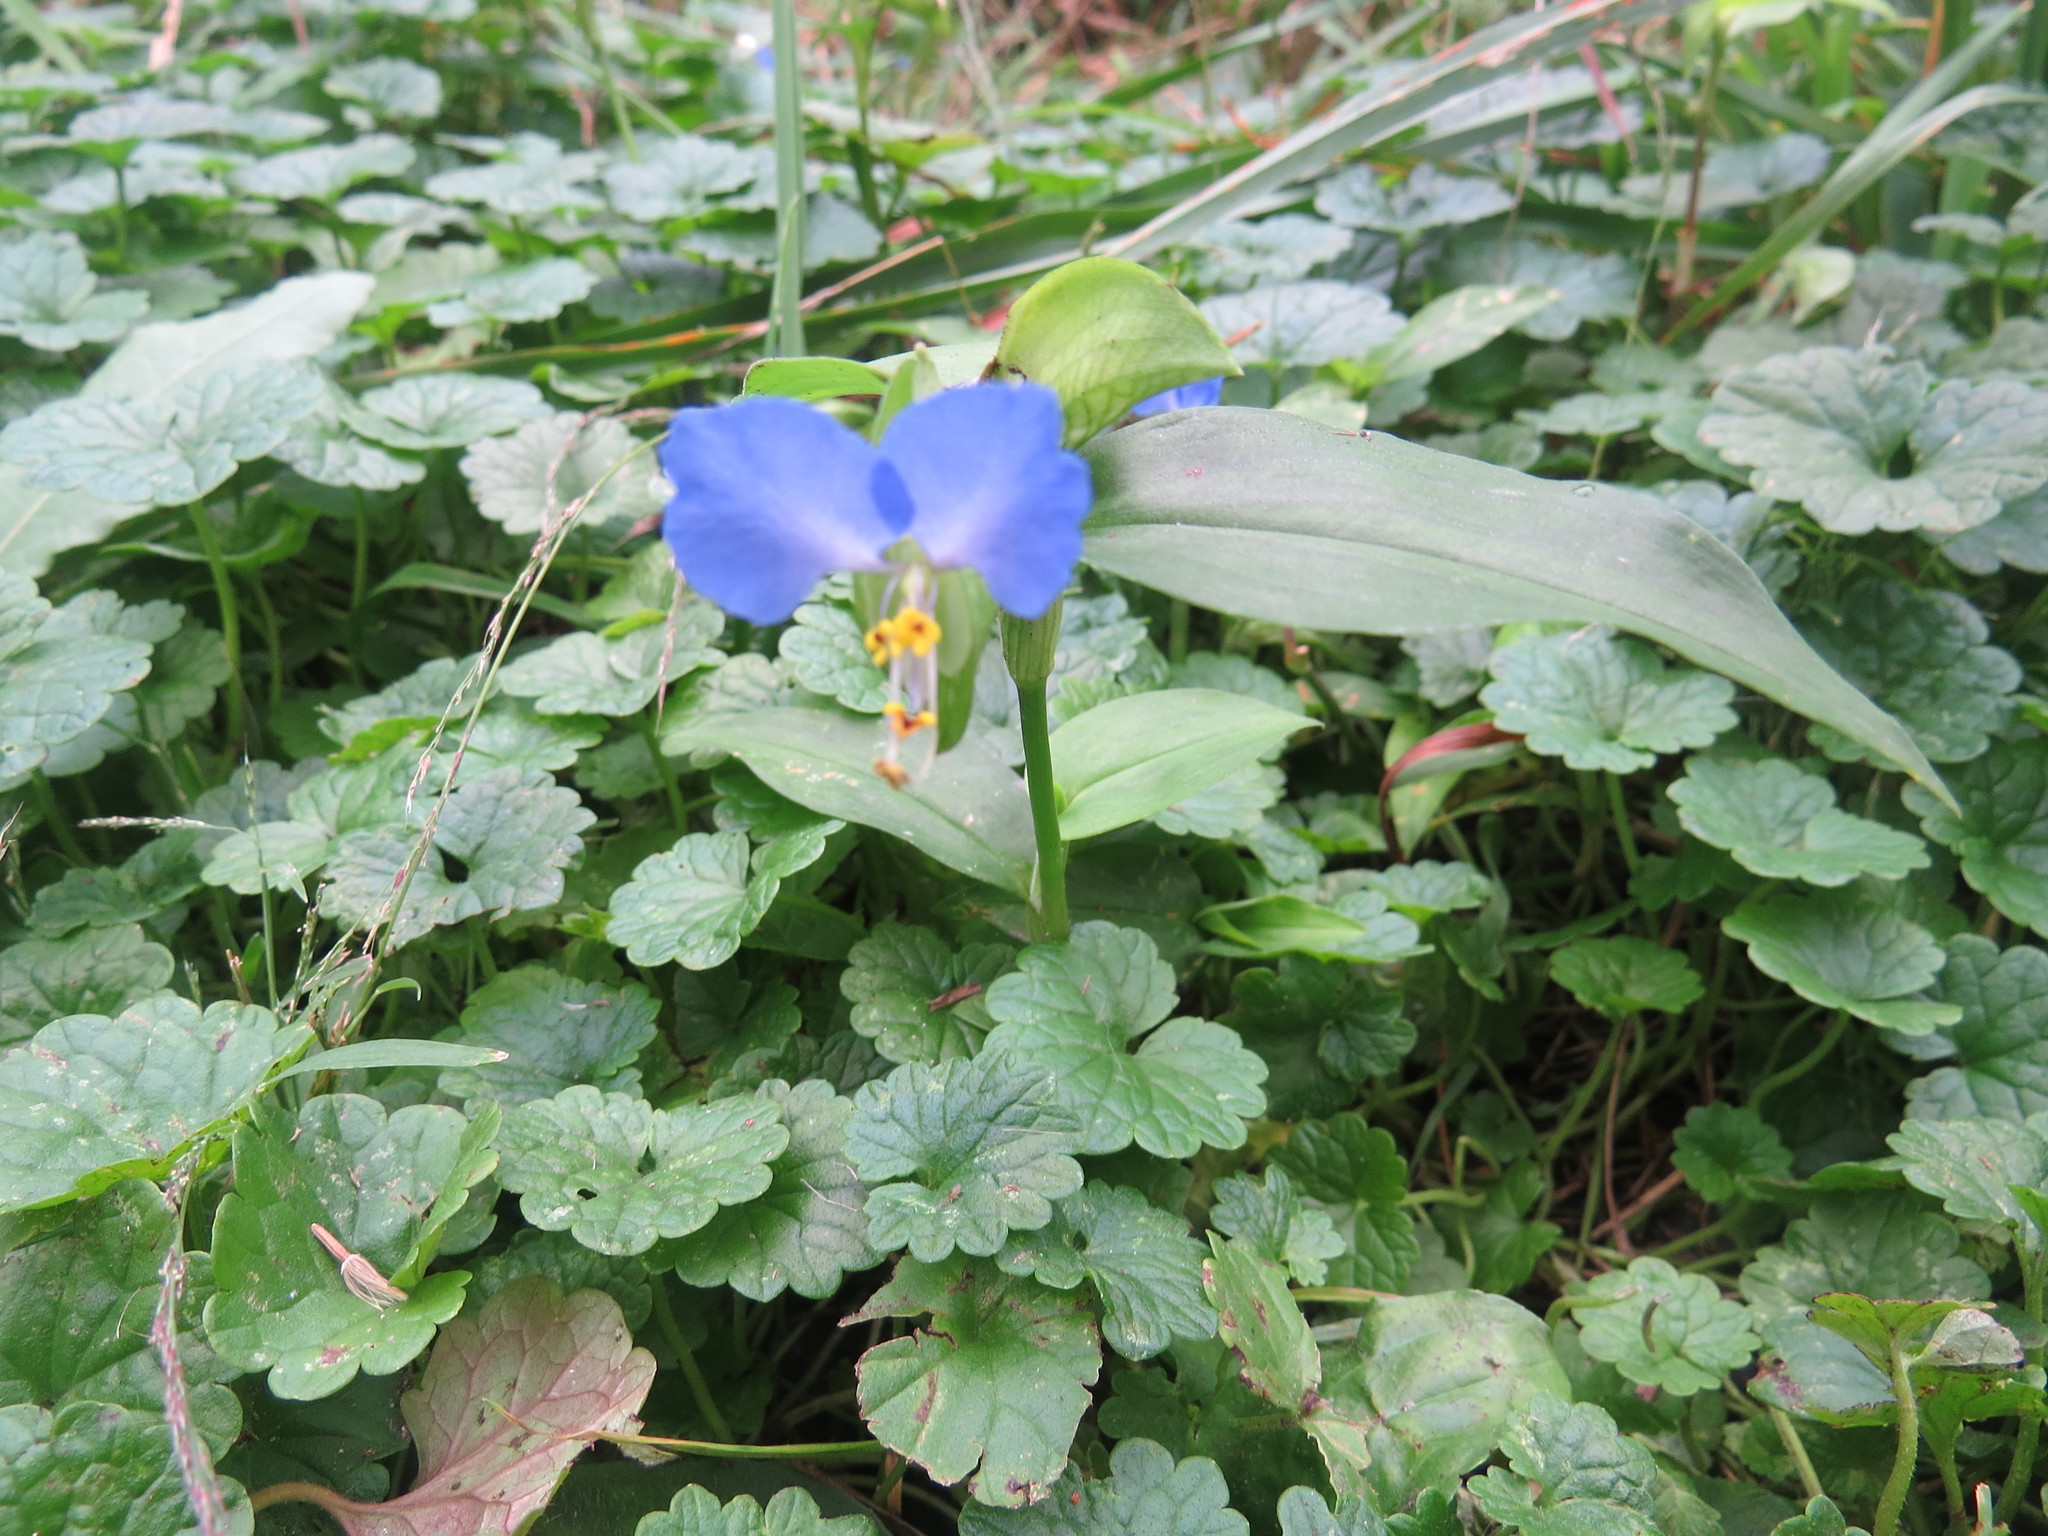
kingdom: Plantae
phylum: Tracheophyta
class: Liliopsida
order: Commelinales
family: Commelinaceae
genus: Commelina
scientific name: Commelina communis
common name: Asiatic dayflower
